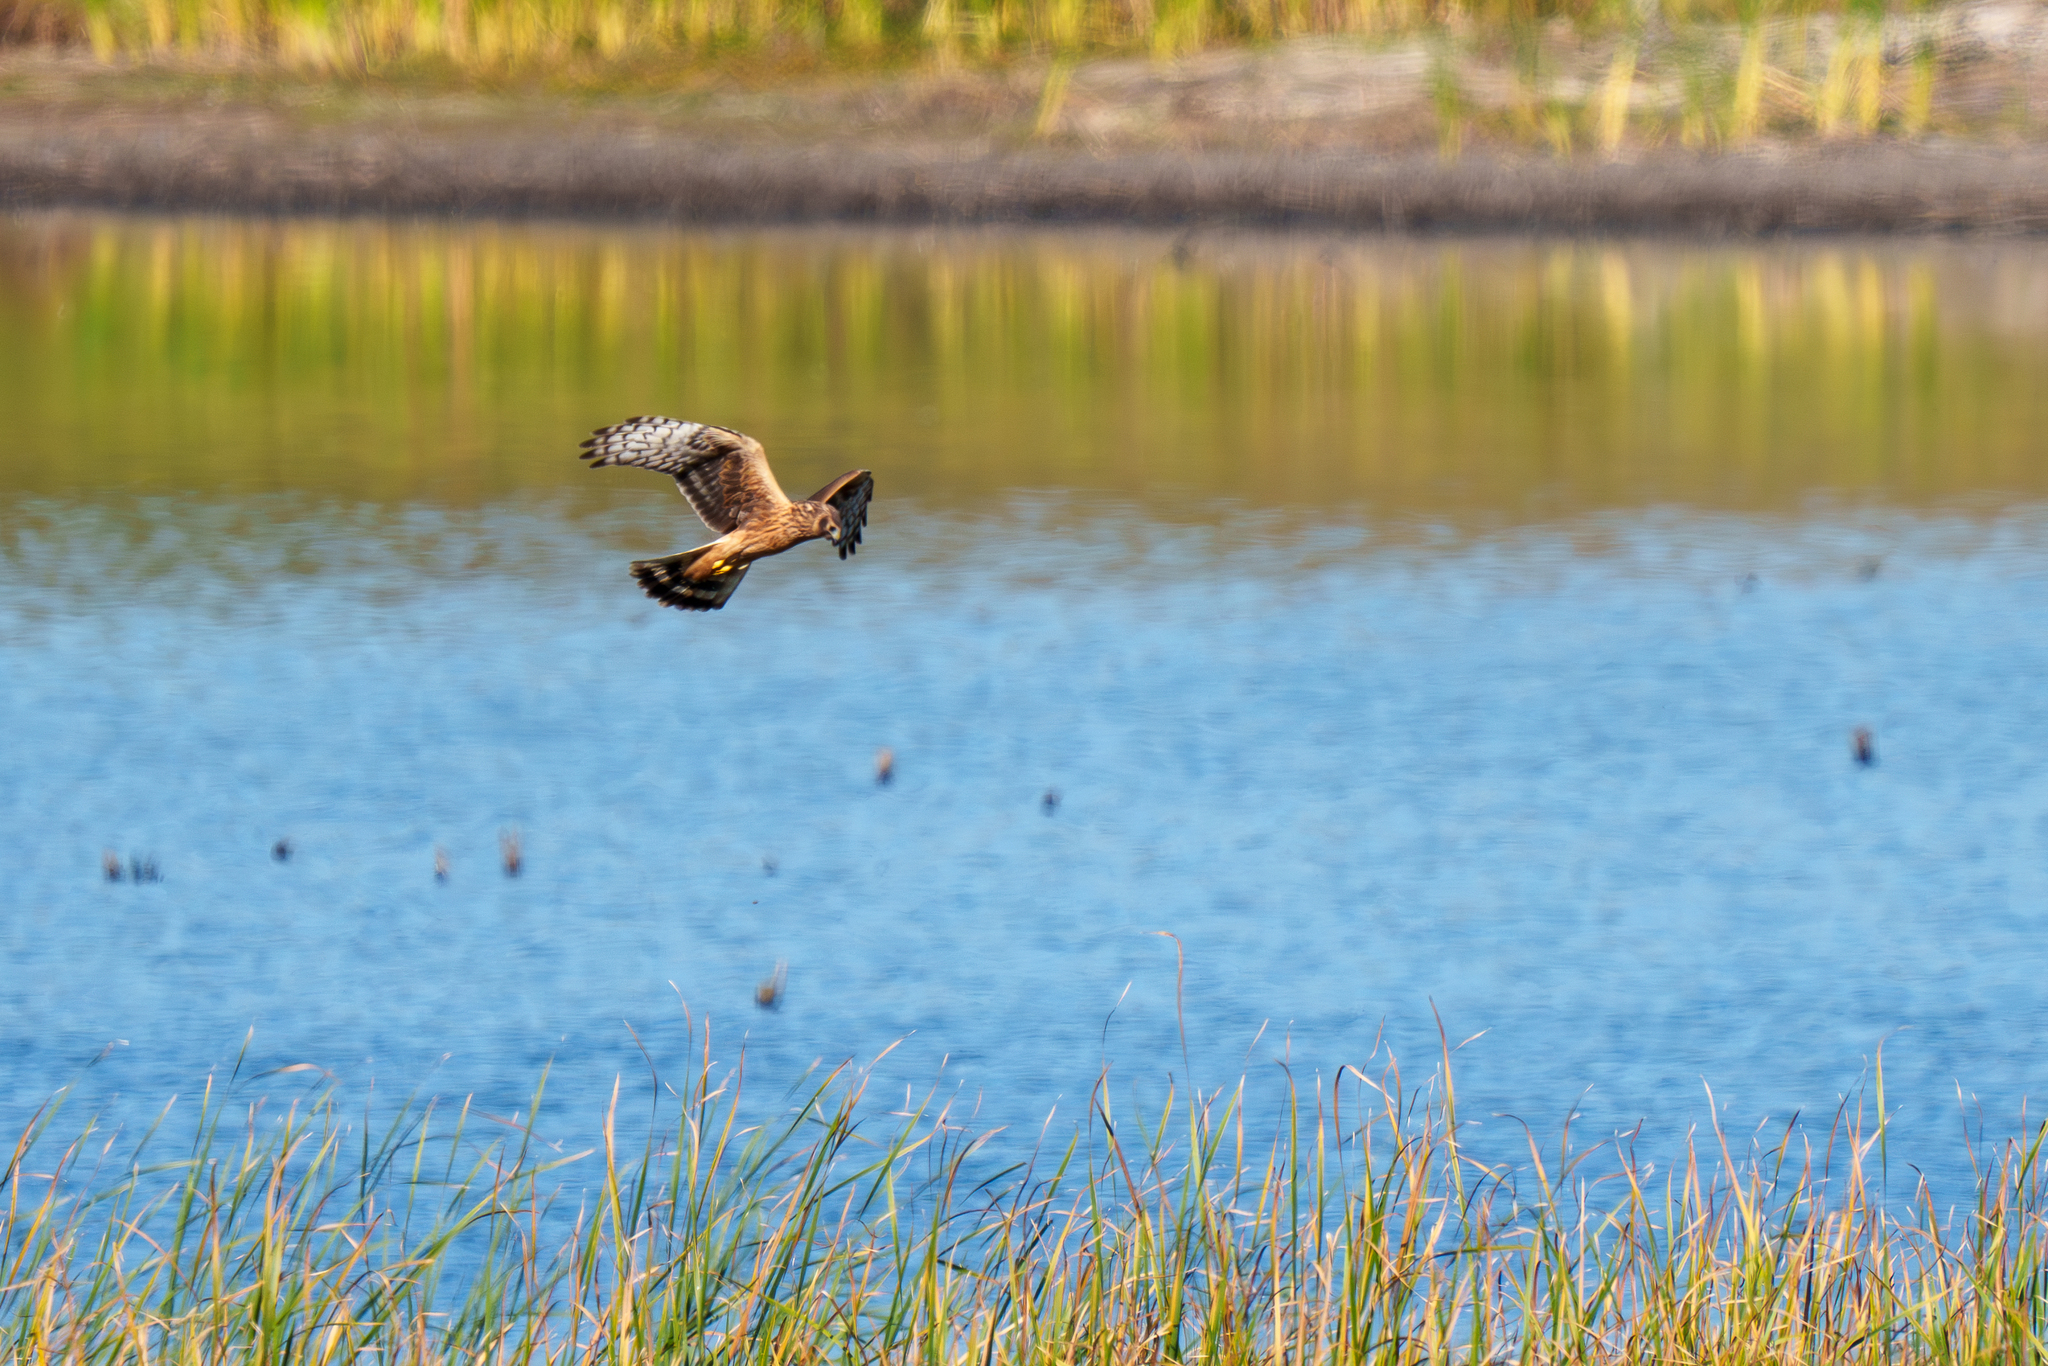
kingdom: Animalia
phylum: Chordata
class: Aves
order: Accipitriformes
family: Accipitridae
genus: Circus
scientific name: Circus cyaneus
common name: Hen harrier
